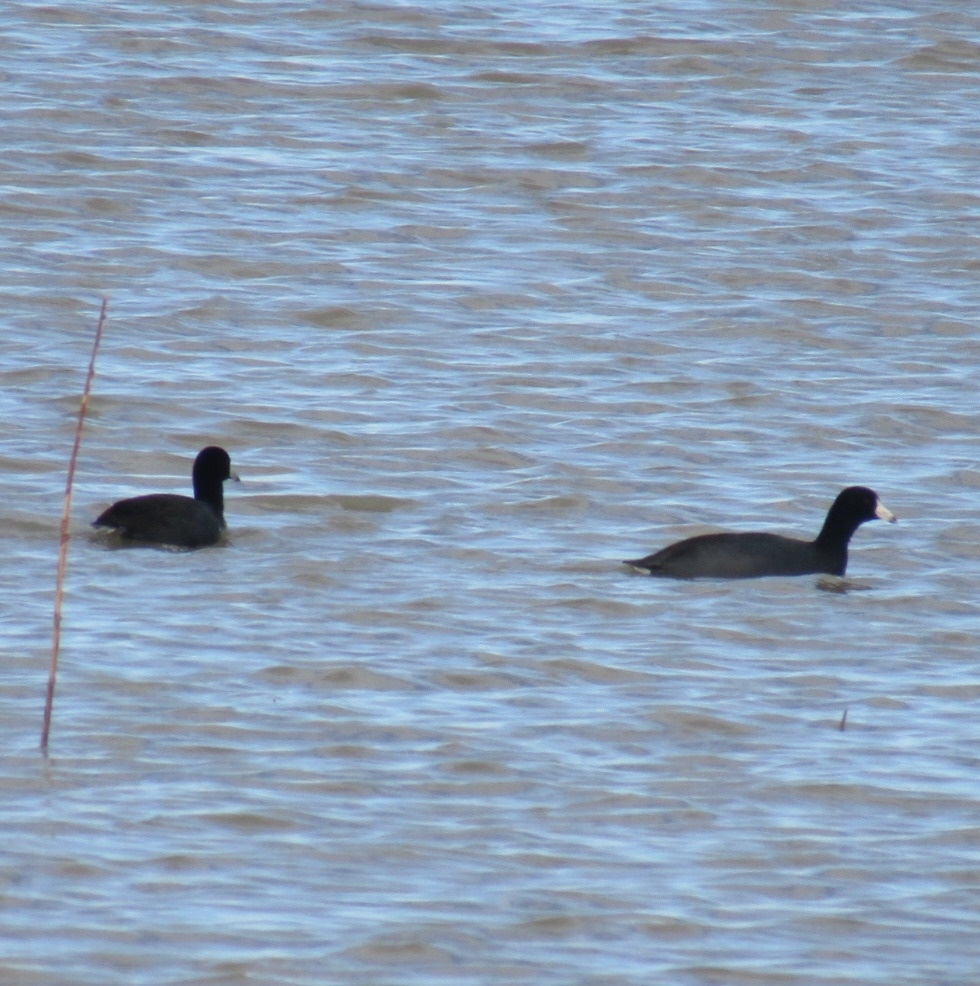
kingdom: Animalia
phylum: Chordata
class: Aves
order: Gruiformes
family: Rallidae
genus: Fulica
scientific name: Fulica americana
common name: American coot
